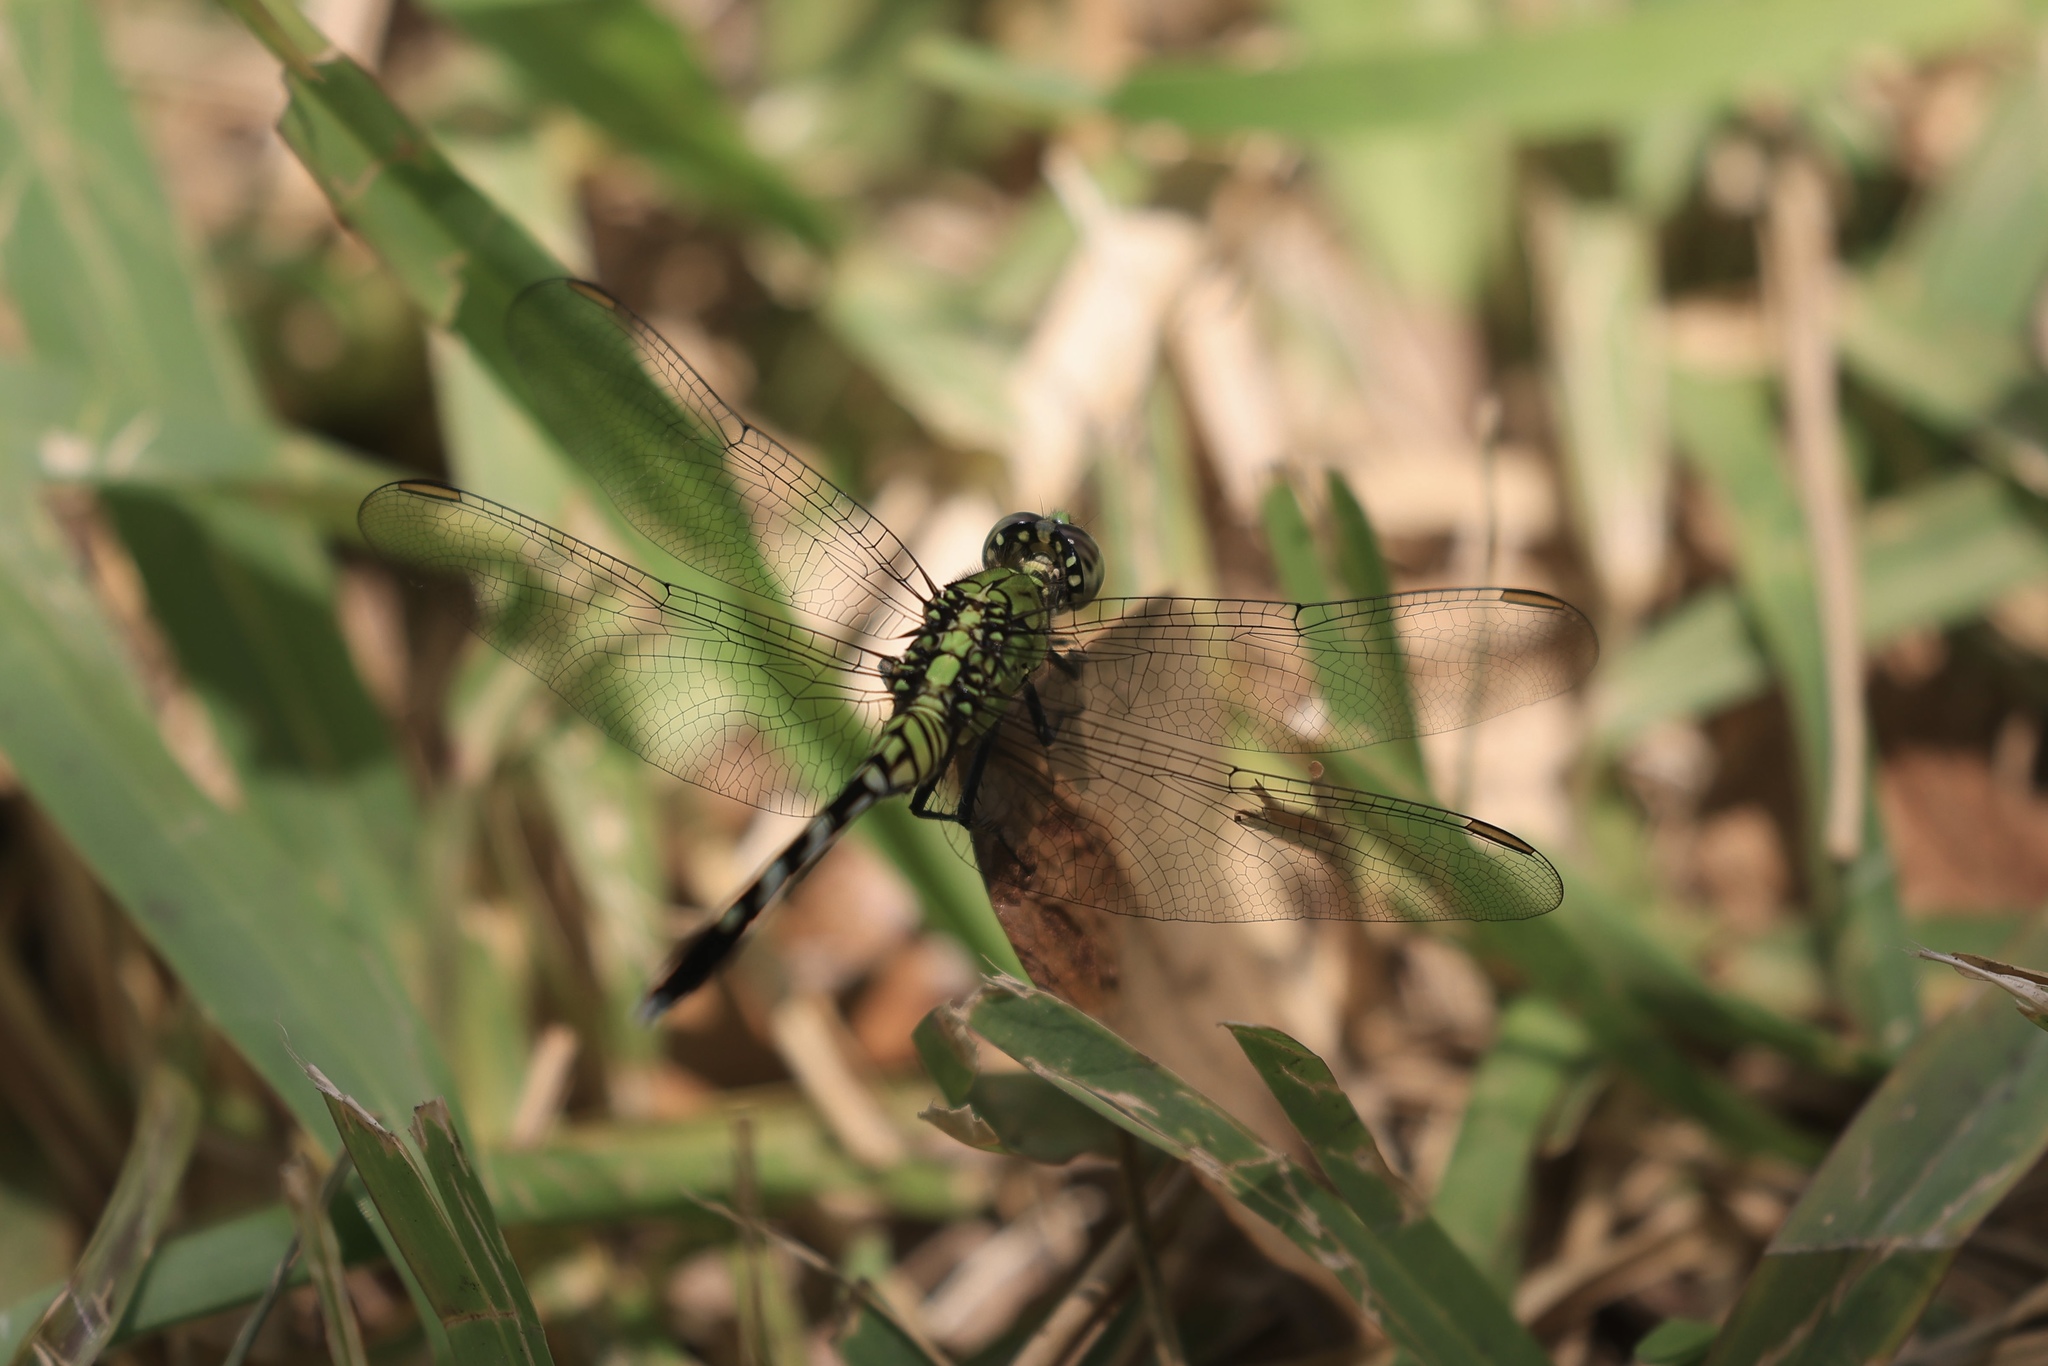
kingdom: Animalia
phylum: Arthropoda
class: Insecta
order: Odonata
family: Libellulidae
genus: Erythemis
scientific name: Erythemis simplicicollis
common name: Eastern pondhawk
